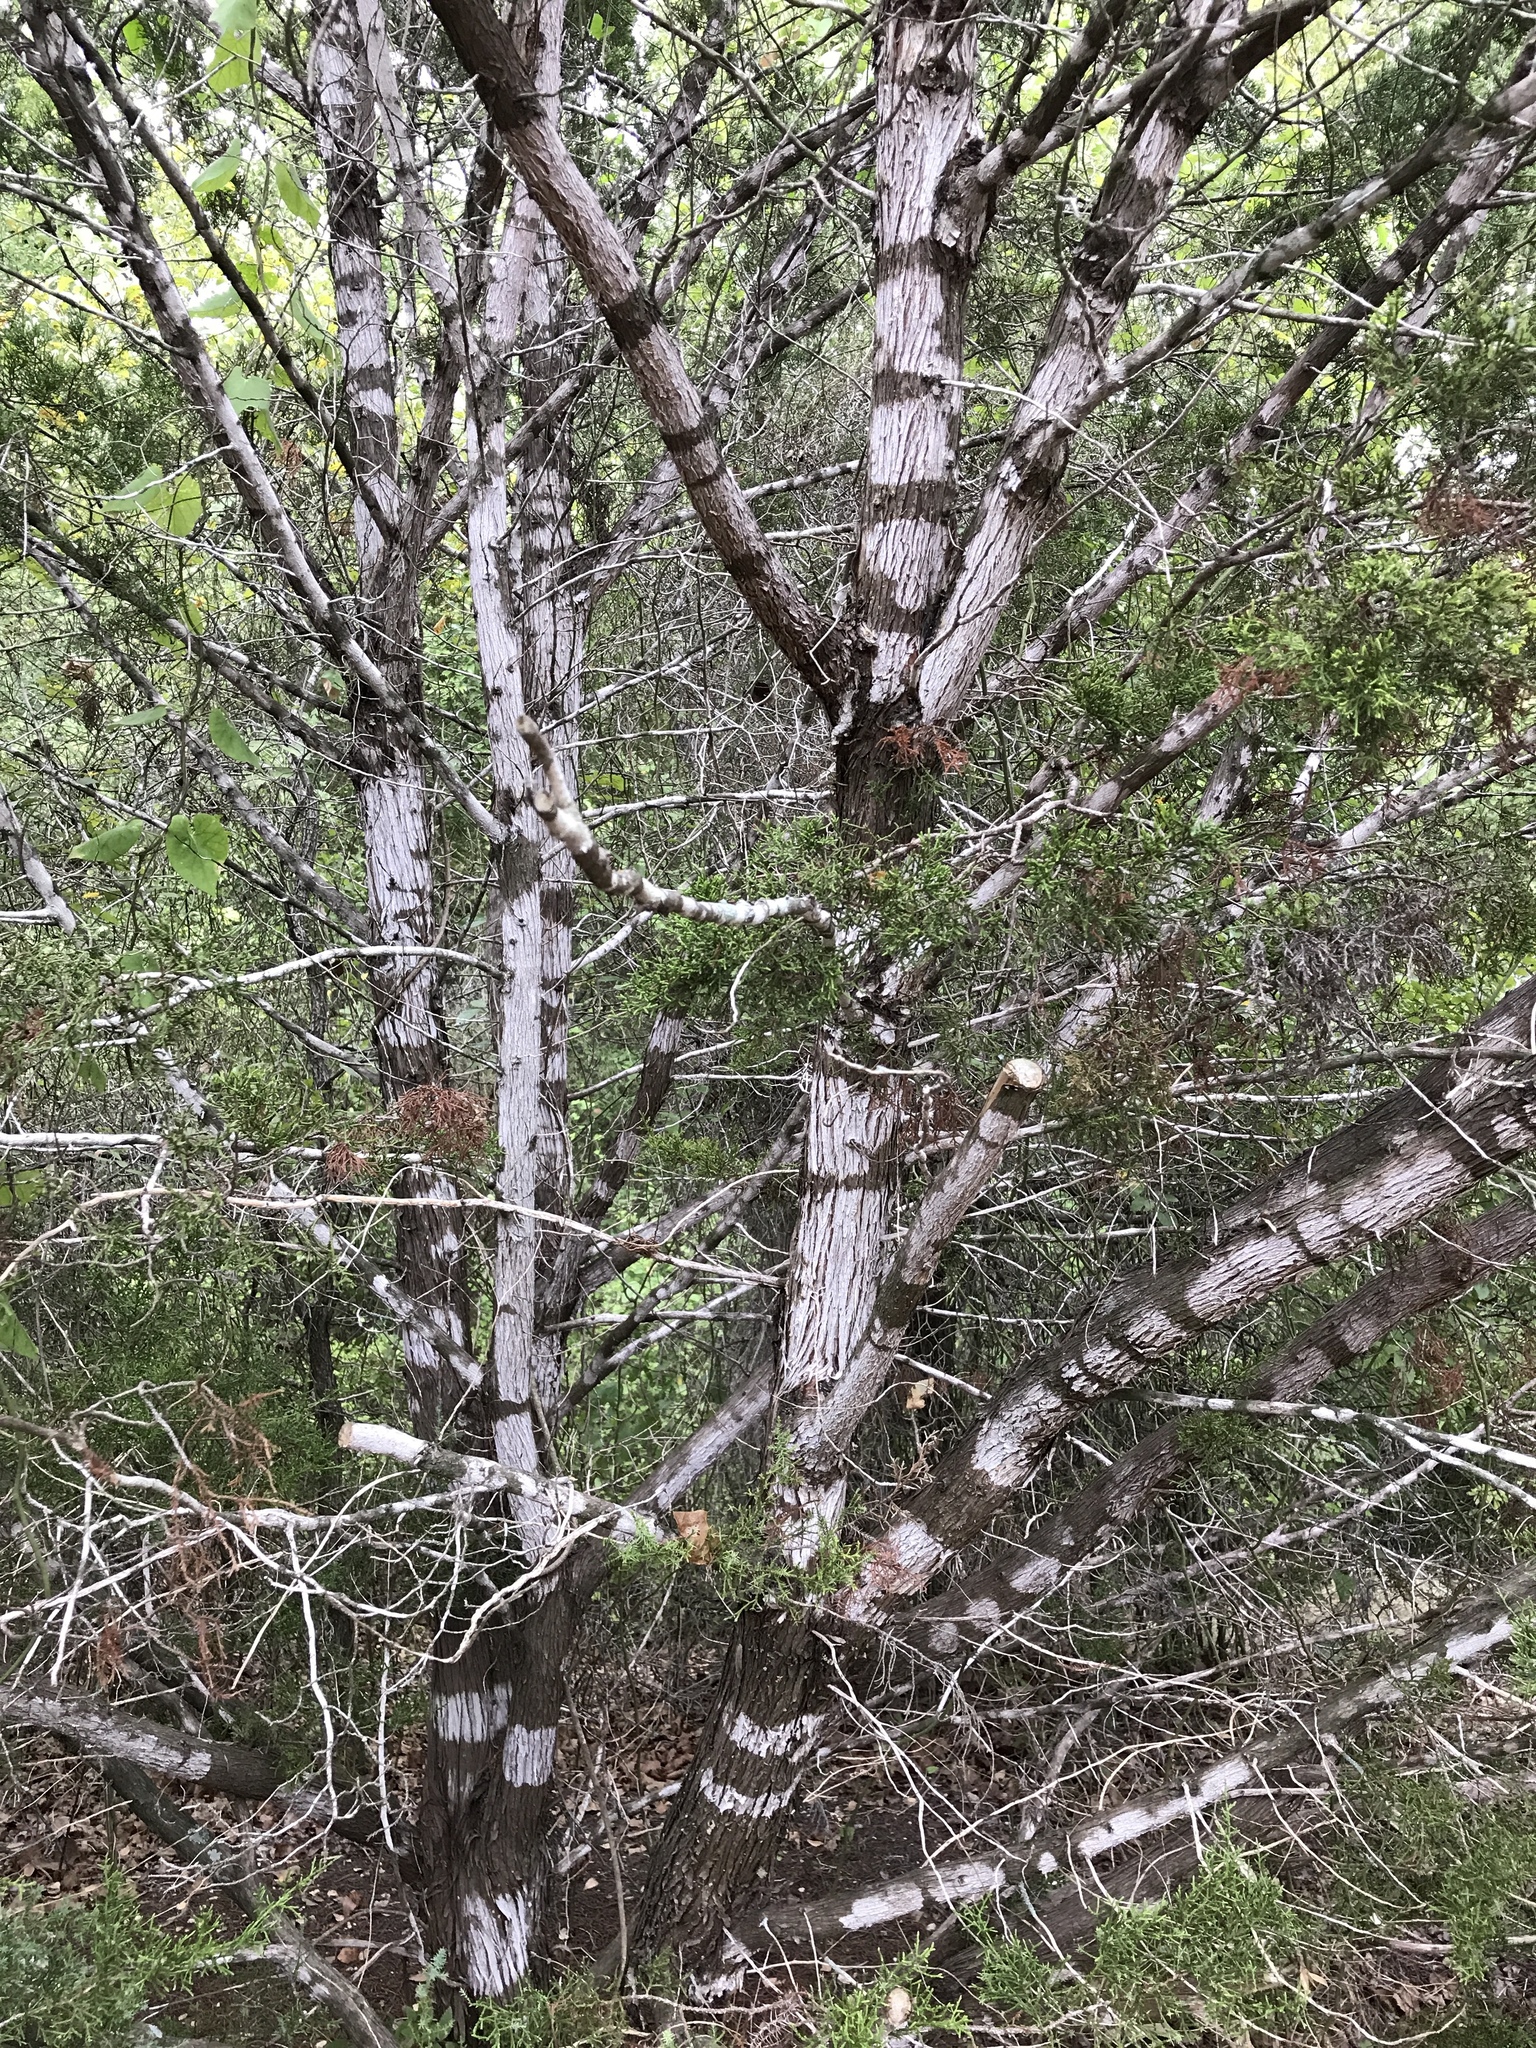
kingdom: Fungi
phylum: Ascomycota
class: Lecanoromycetes
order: Ostropales
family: Stictidaceae
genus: Robergea
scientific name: Robergea
